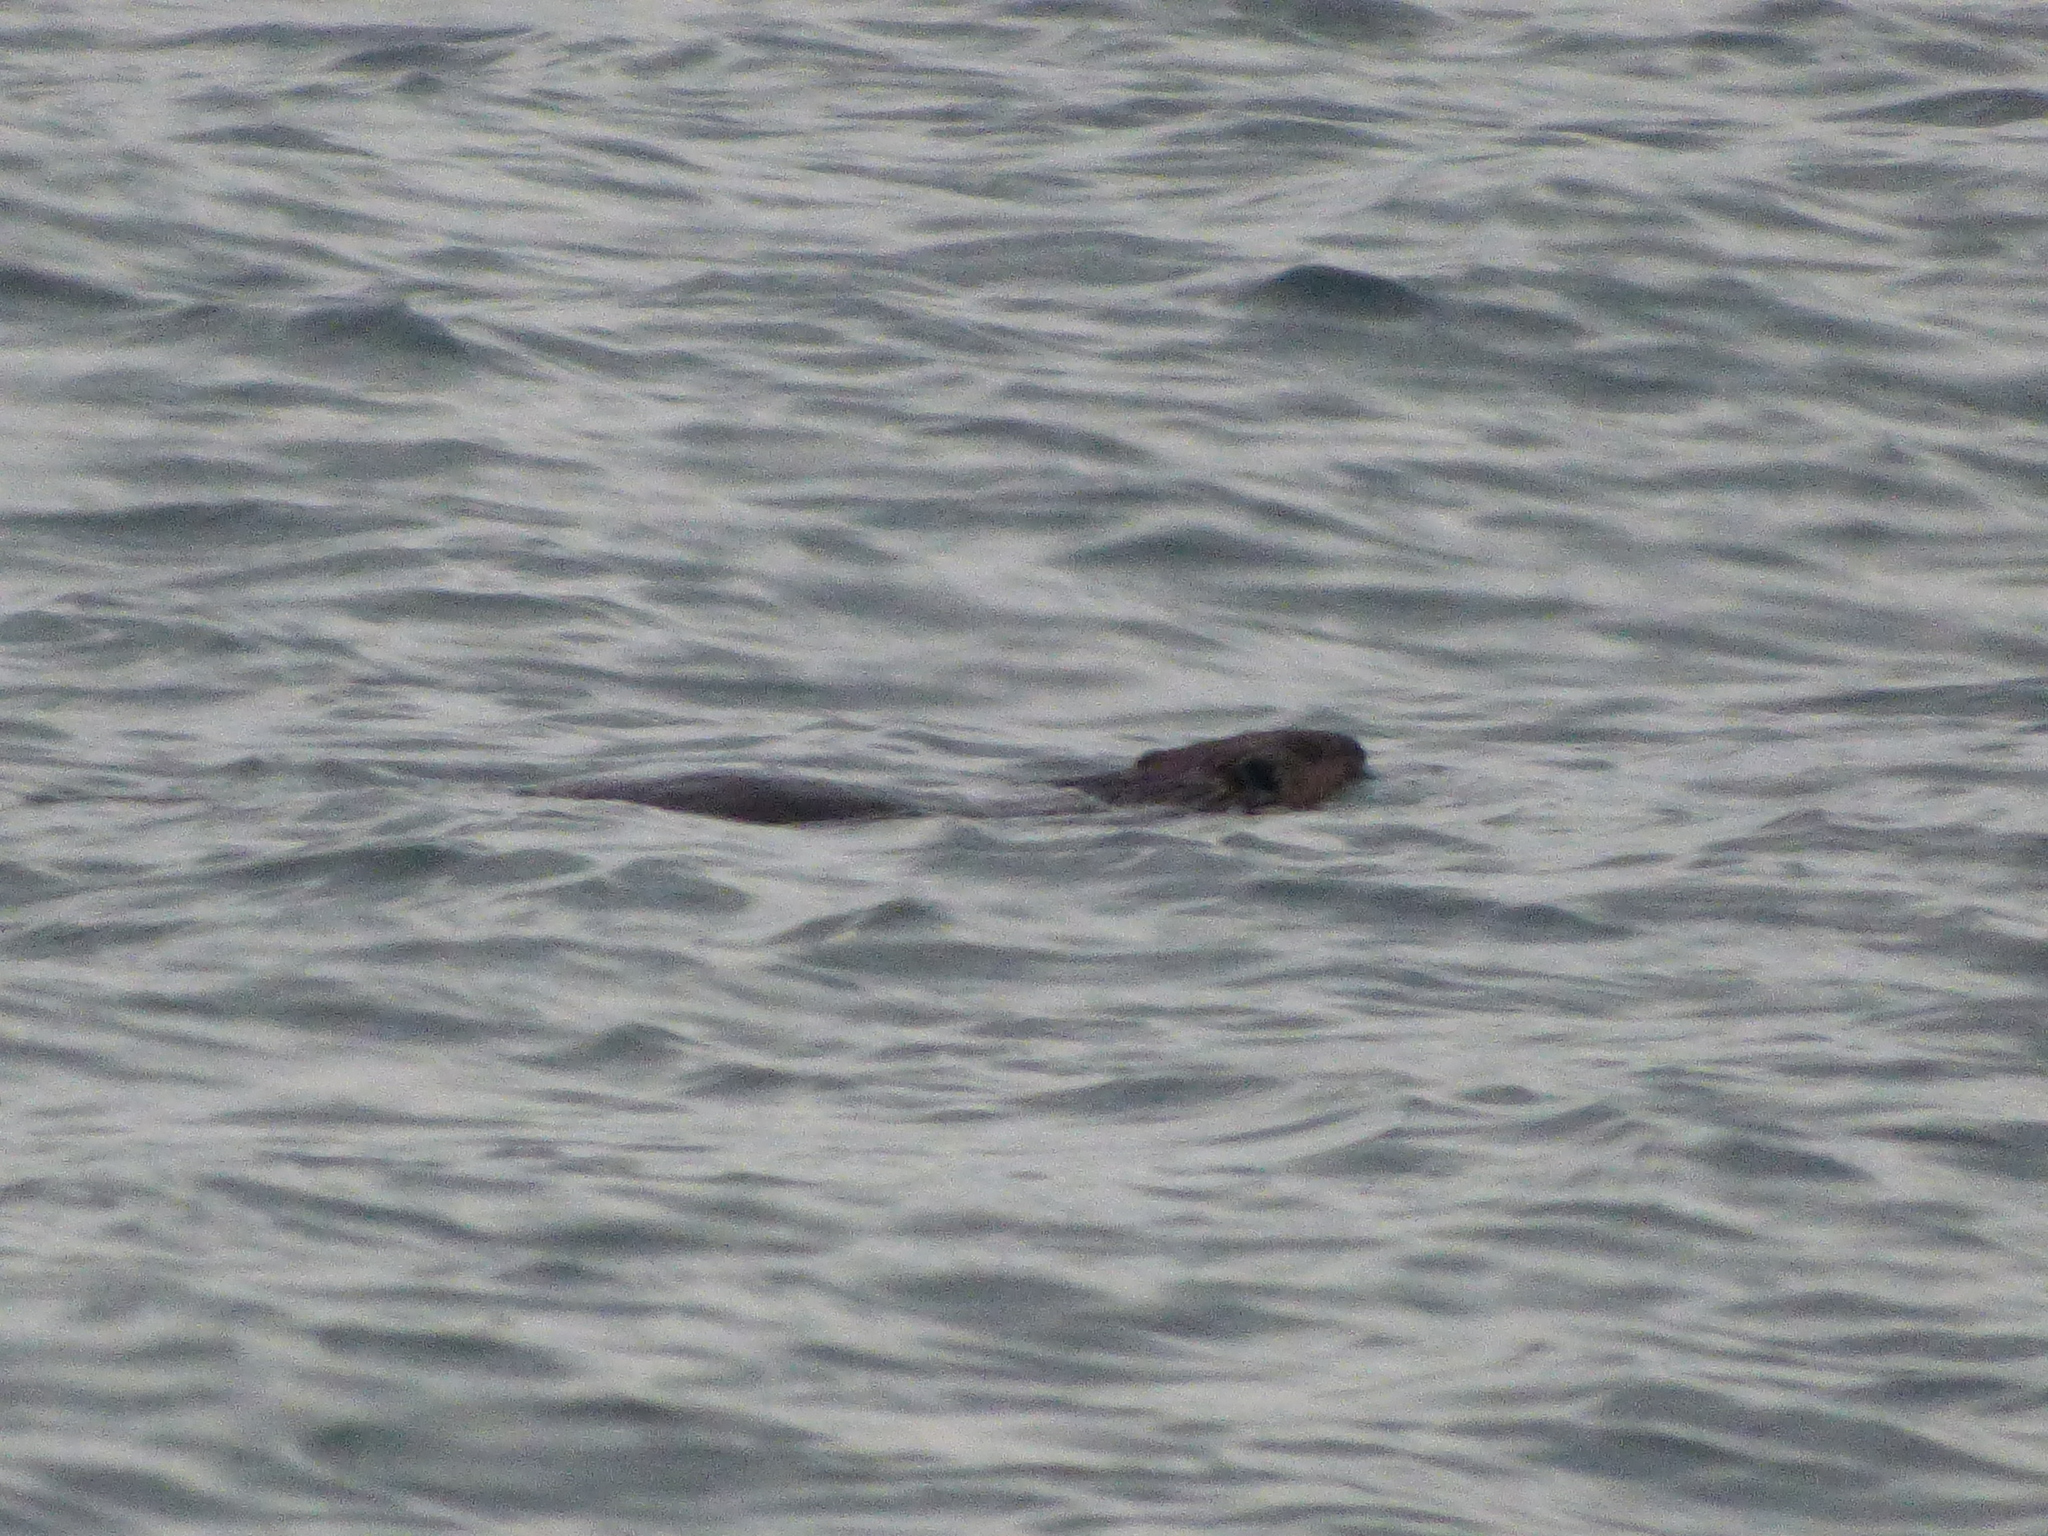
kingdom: Animalia
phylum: Chordata
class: Mammalia
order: Rodentia
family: Castoridae
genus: Castor
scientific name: Castor canadensis
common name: American beaver
